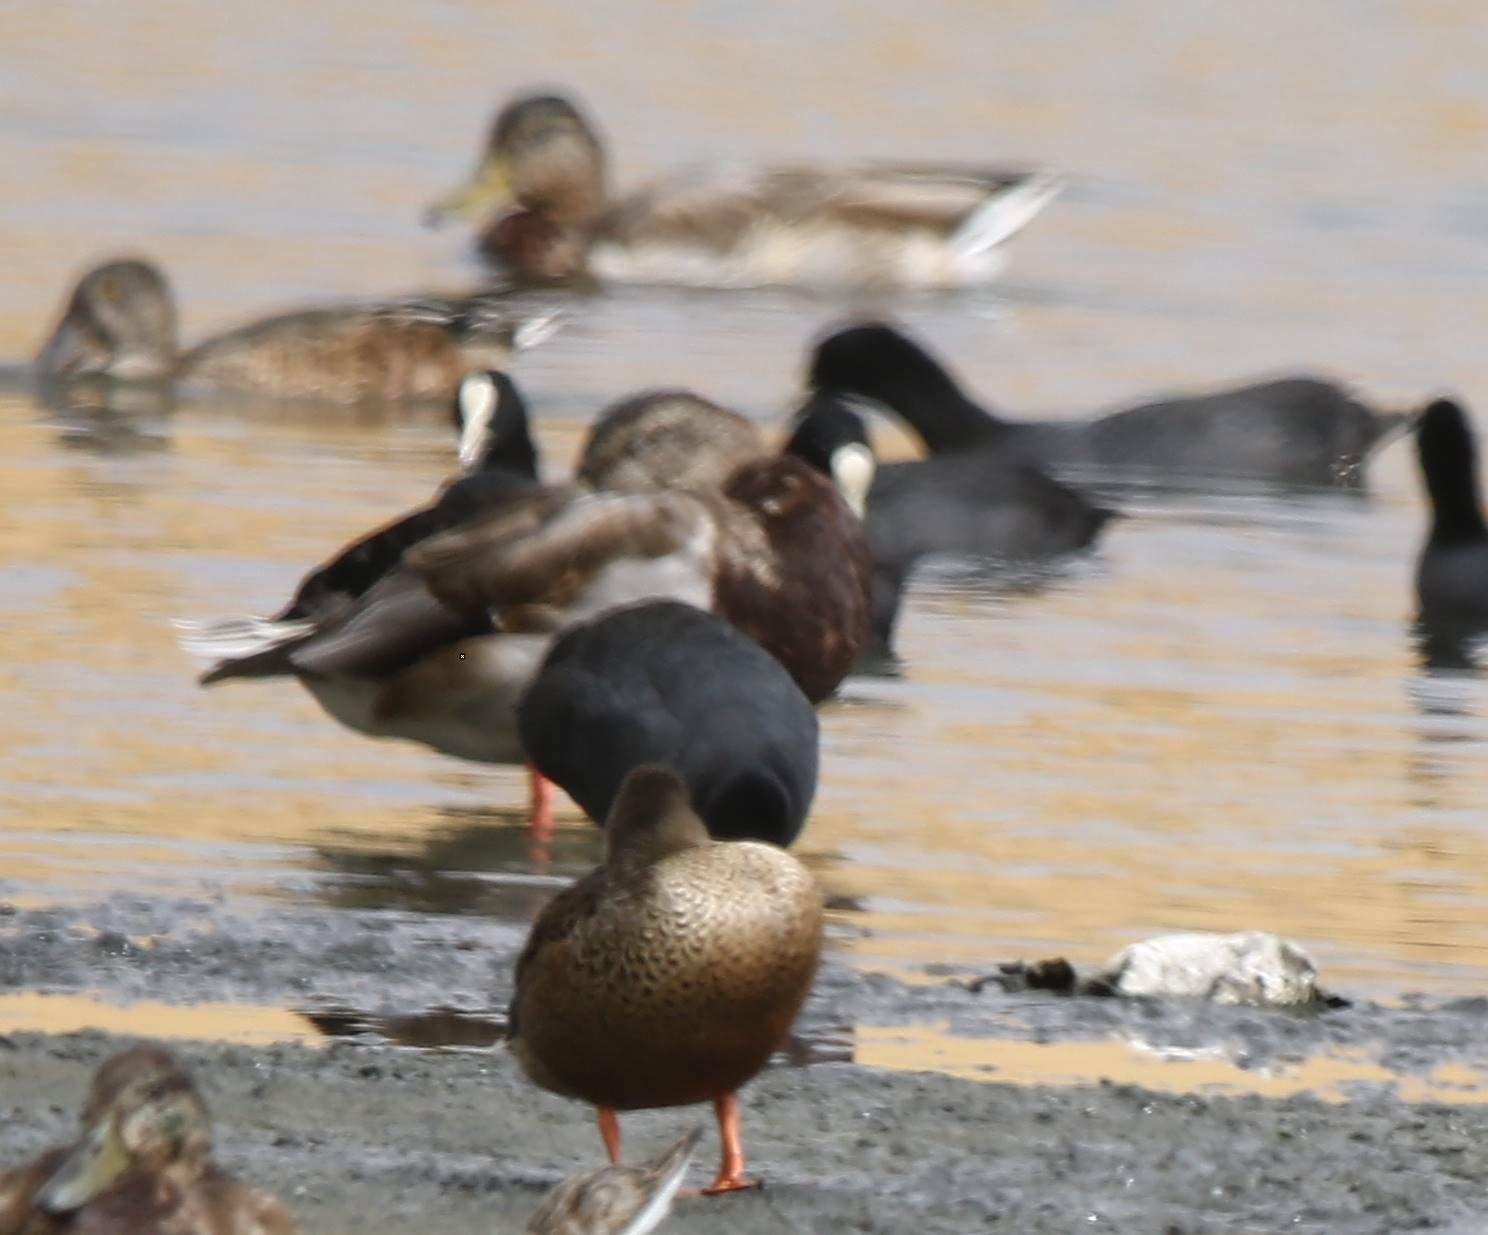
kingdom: Animalia
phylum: Chordata
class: Aves
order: Anseriformes
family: Anatidae
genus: Spatula
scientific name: Spatula clypeata
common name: Northern shoveler
